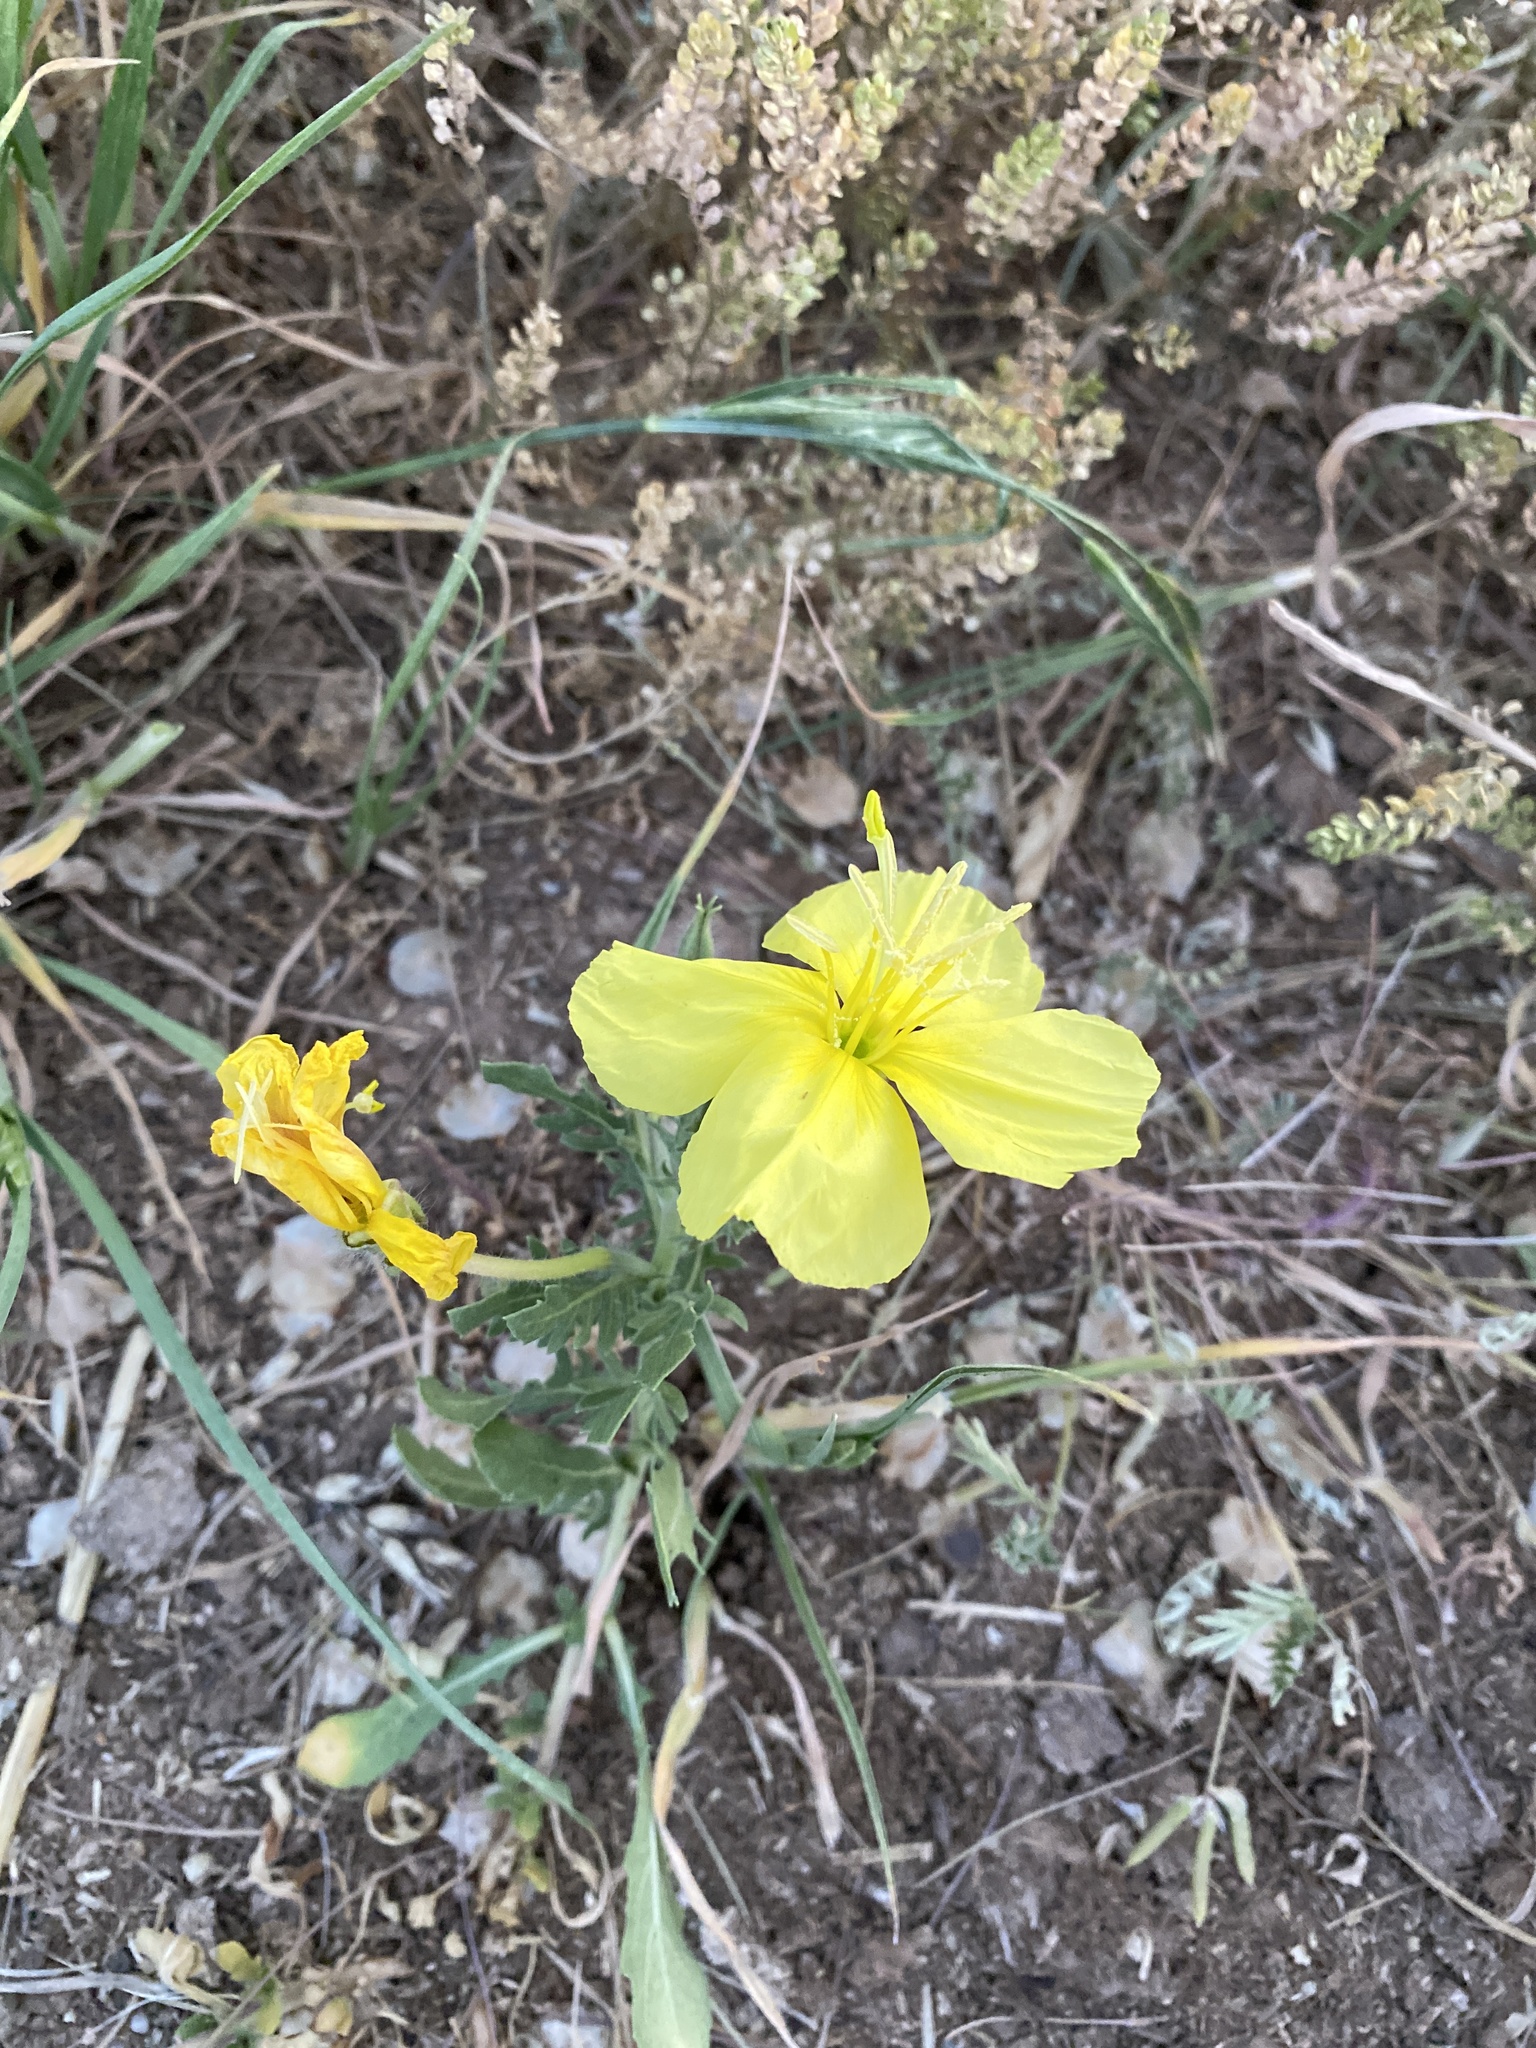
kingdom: Plantae
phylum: Tracheophyta
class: Magnoliopsida
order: Myrtales
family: Onagraceae
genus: Oenothera
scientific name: Oenothera grandis
